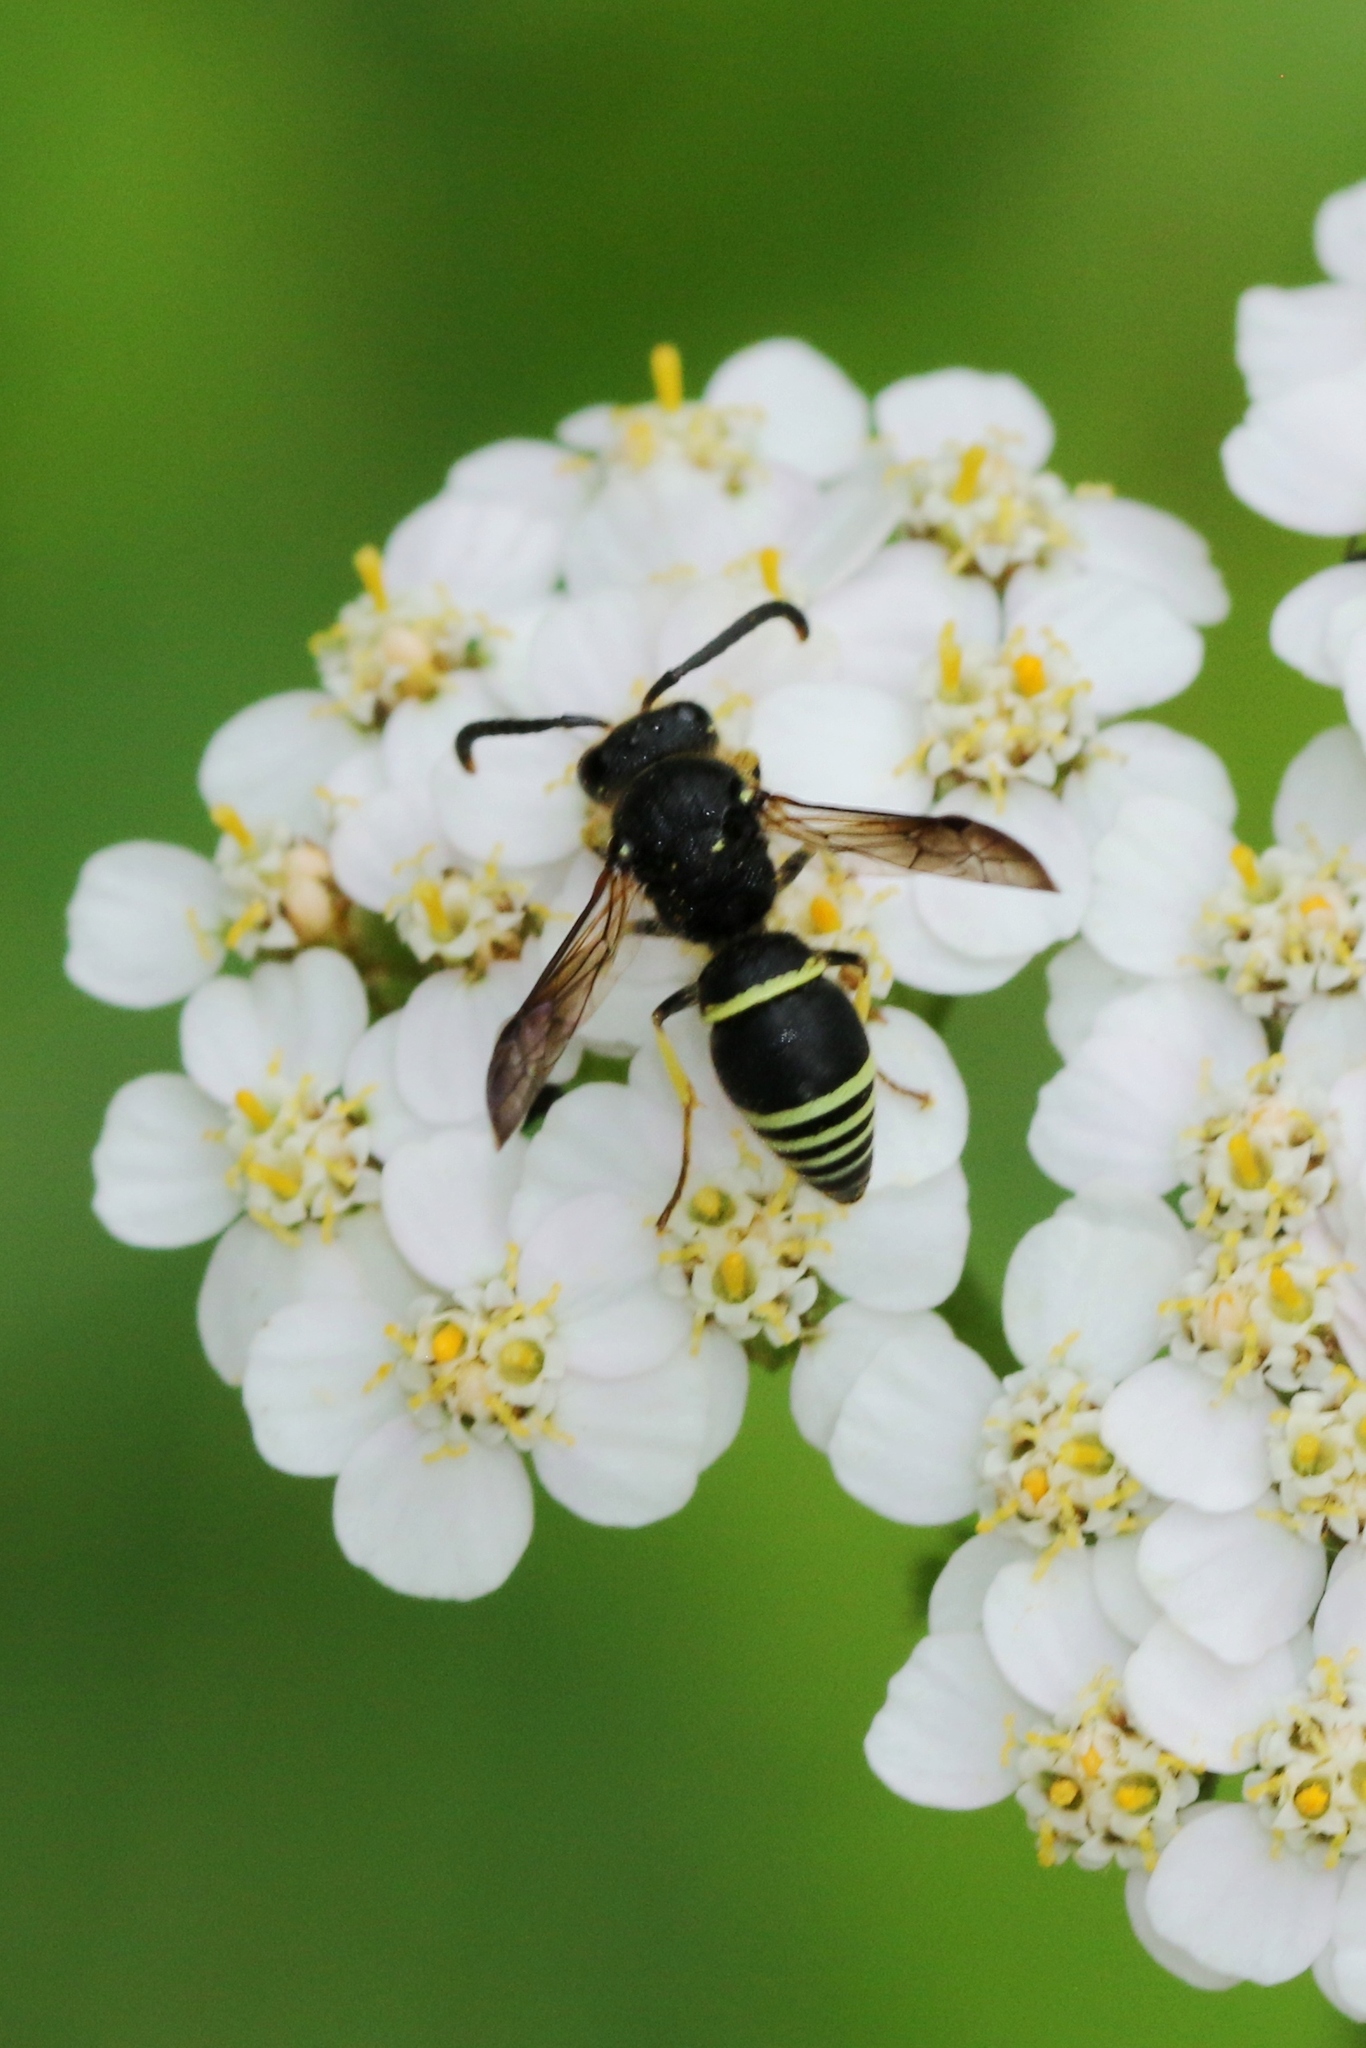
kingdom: Animalia
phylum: Arthropoda
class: Insecta
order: Hymenoptera
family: Vespidae
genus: Ancistrocerus
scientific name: Ancistrocerus
